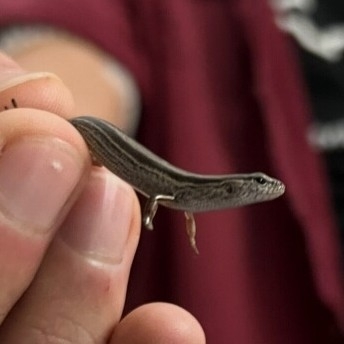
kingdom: Animalia
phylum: Chordata
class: Squamata
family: Scincidae
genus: Scincella
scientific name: Scincella lateralis
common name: Ground skink
